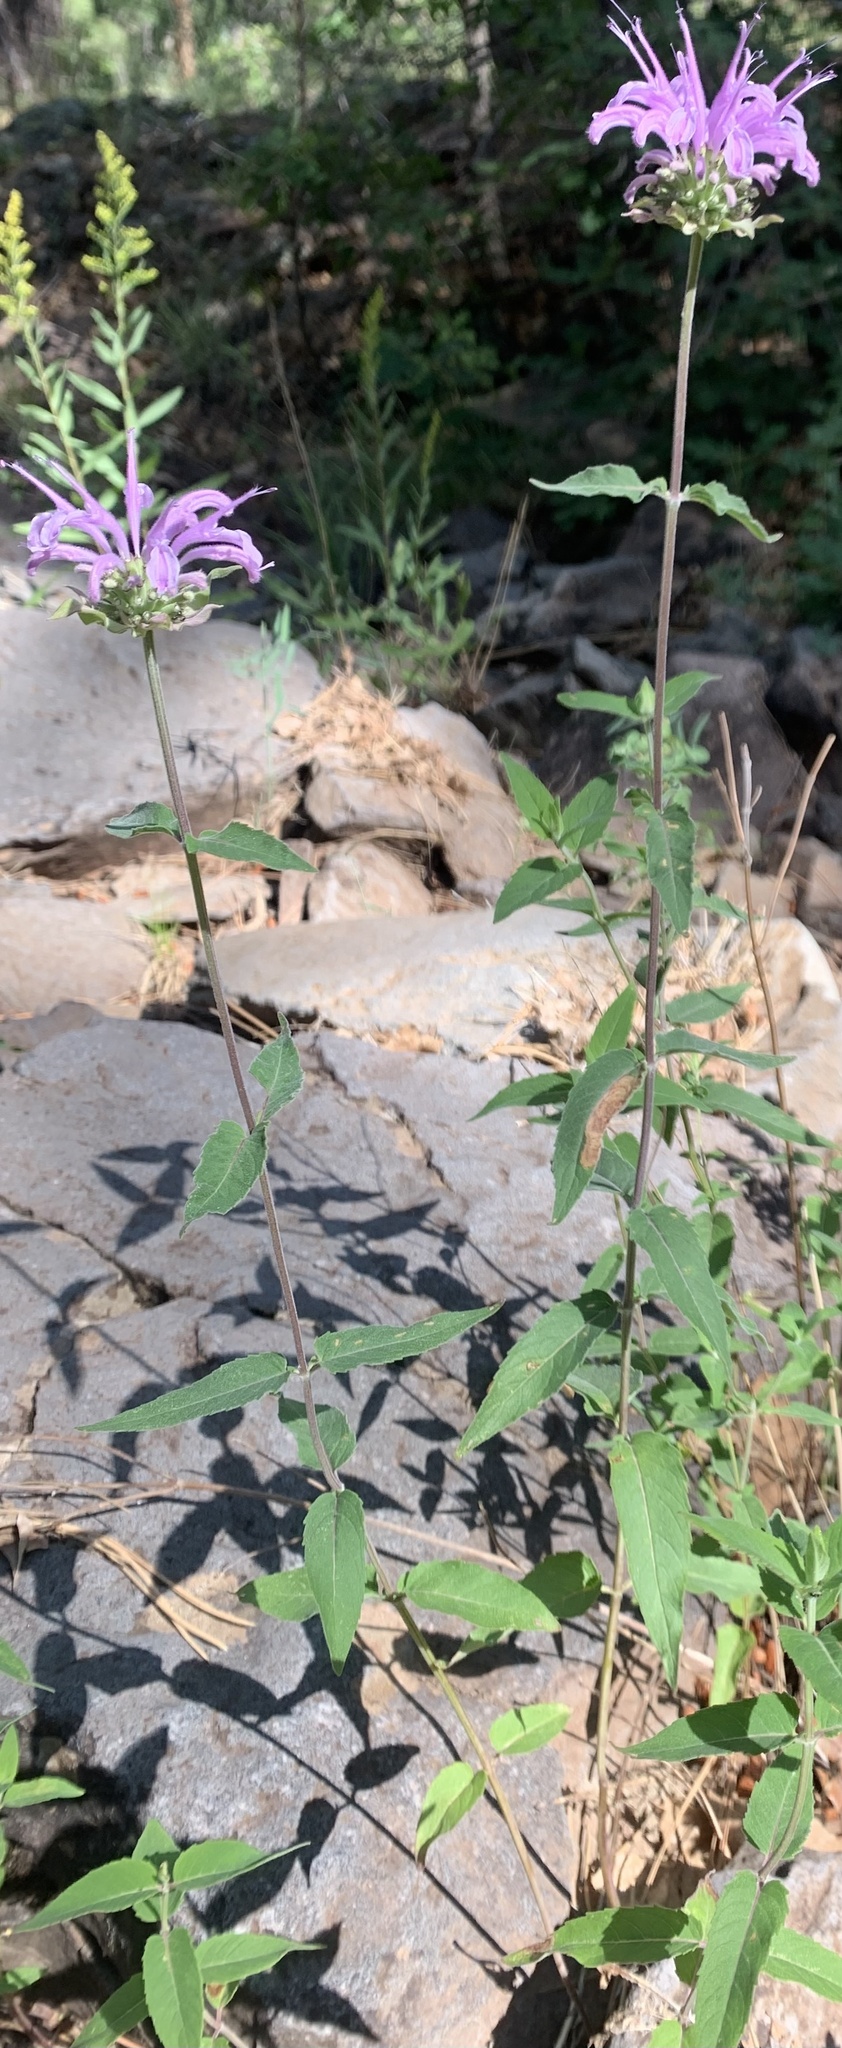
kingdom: Plantae
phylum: Tracheophyta
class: Magnoliopsida
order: Lamiales
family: Lamiaceae
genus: Monarda
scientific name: Monarda fistulosa
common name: Purple beebalm
